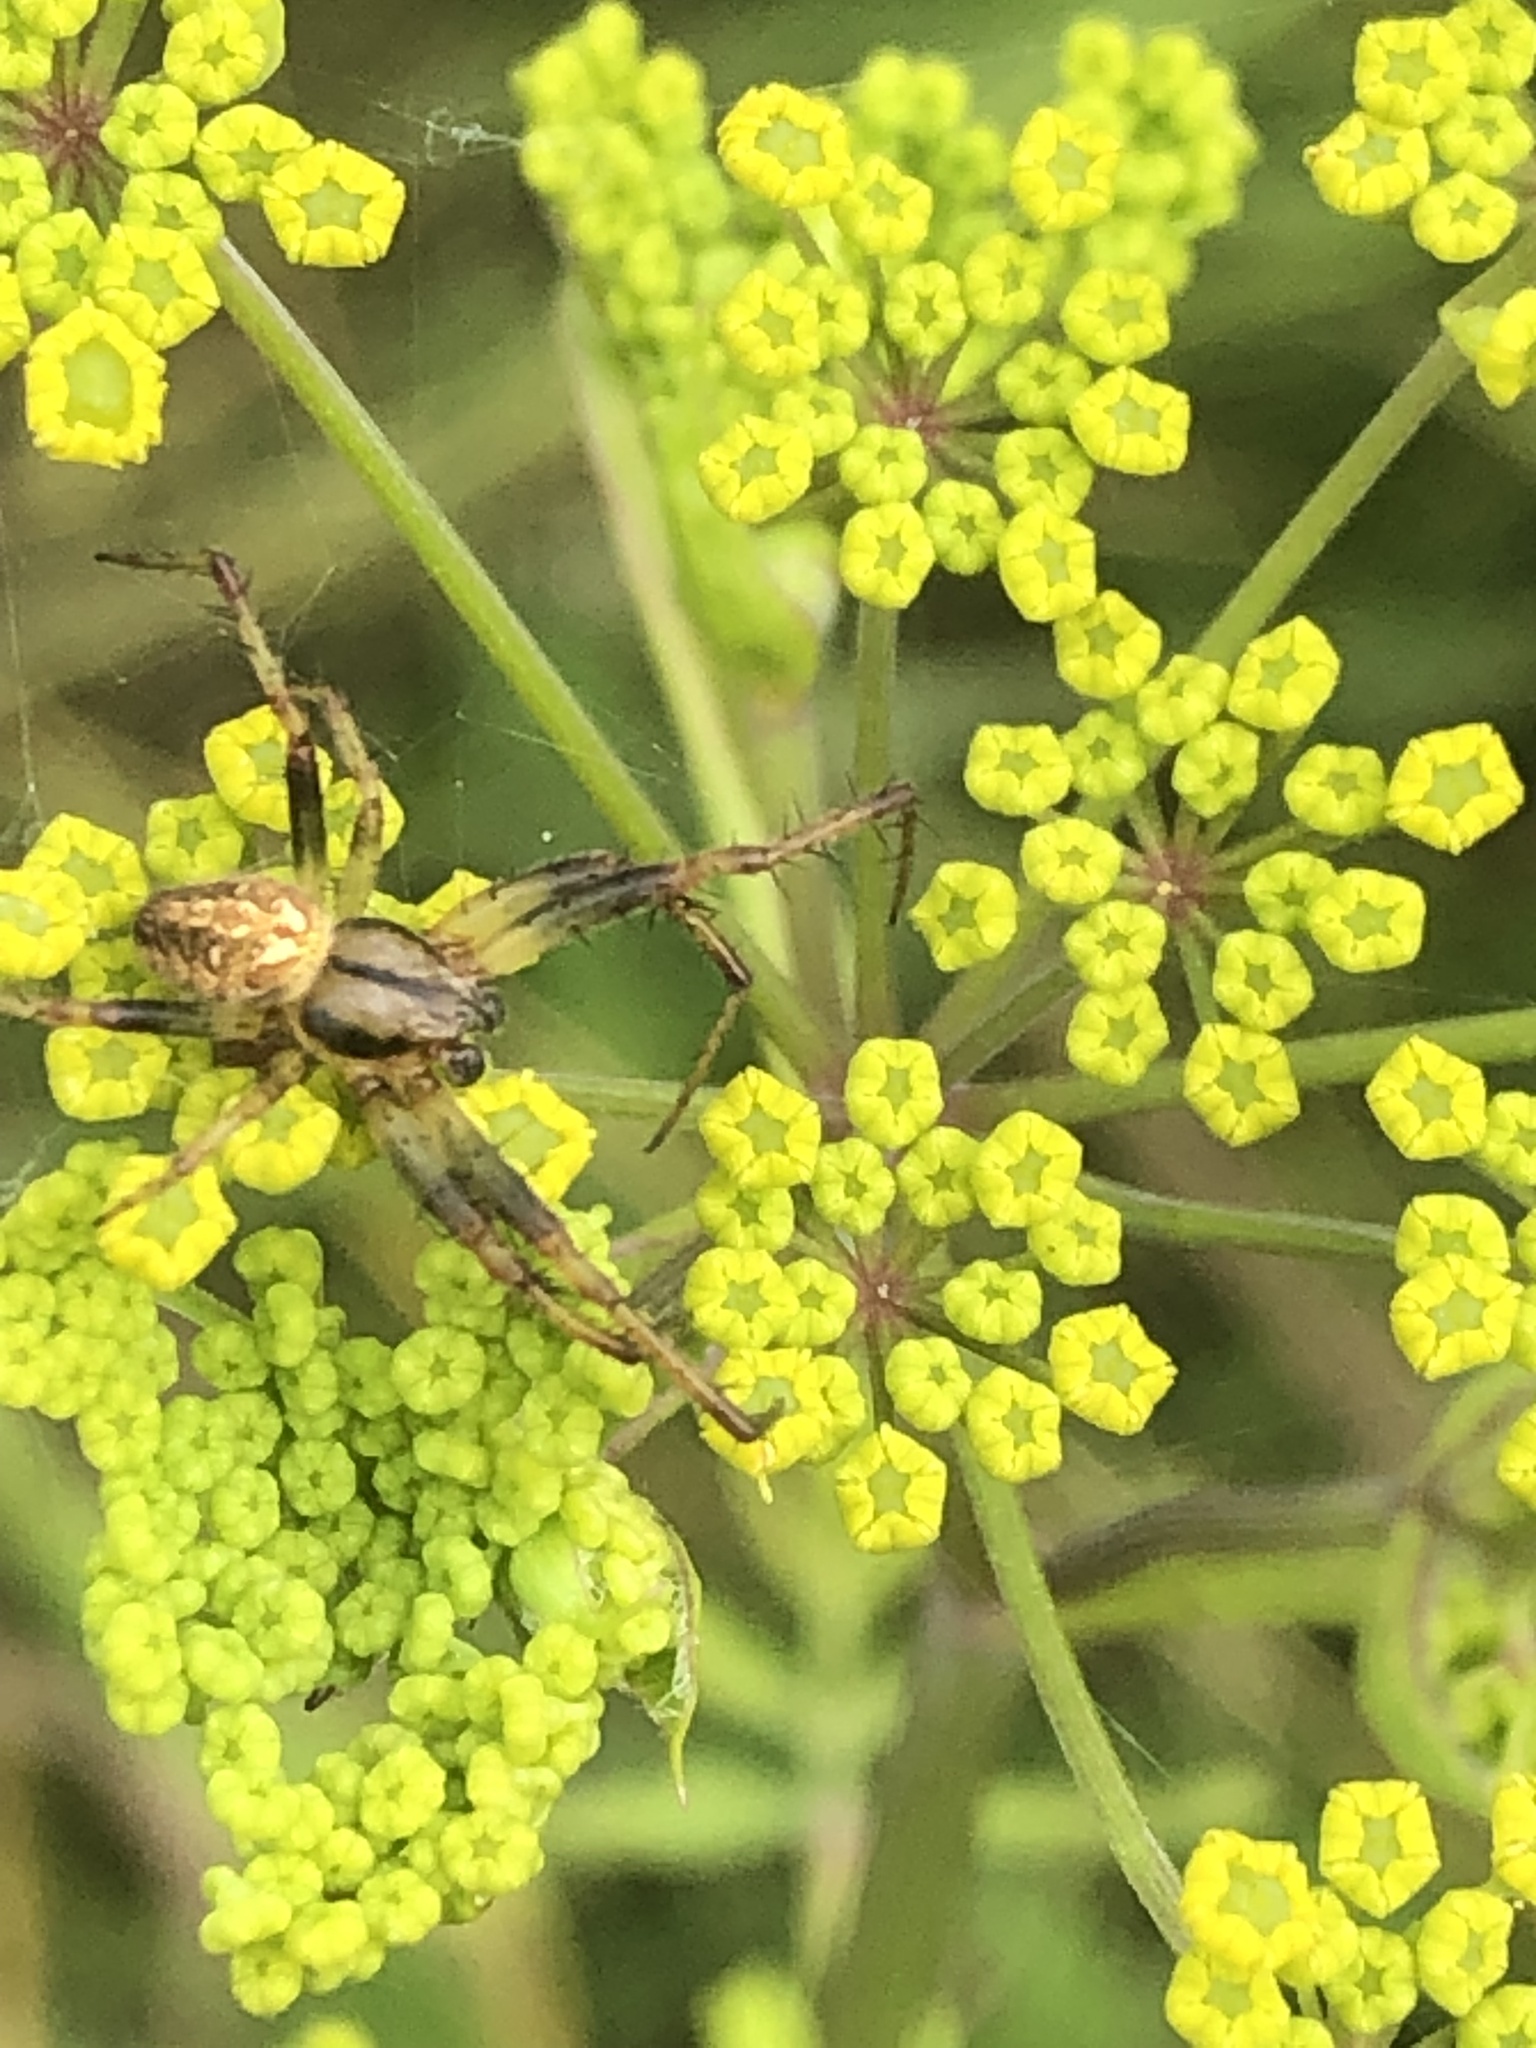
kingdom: Animalia
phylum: Arthropoda
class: Arachnida
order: Araneae
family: Araneidae
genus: Neoscona
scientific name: Neoscona arabesca
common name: Orb weavers
